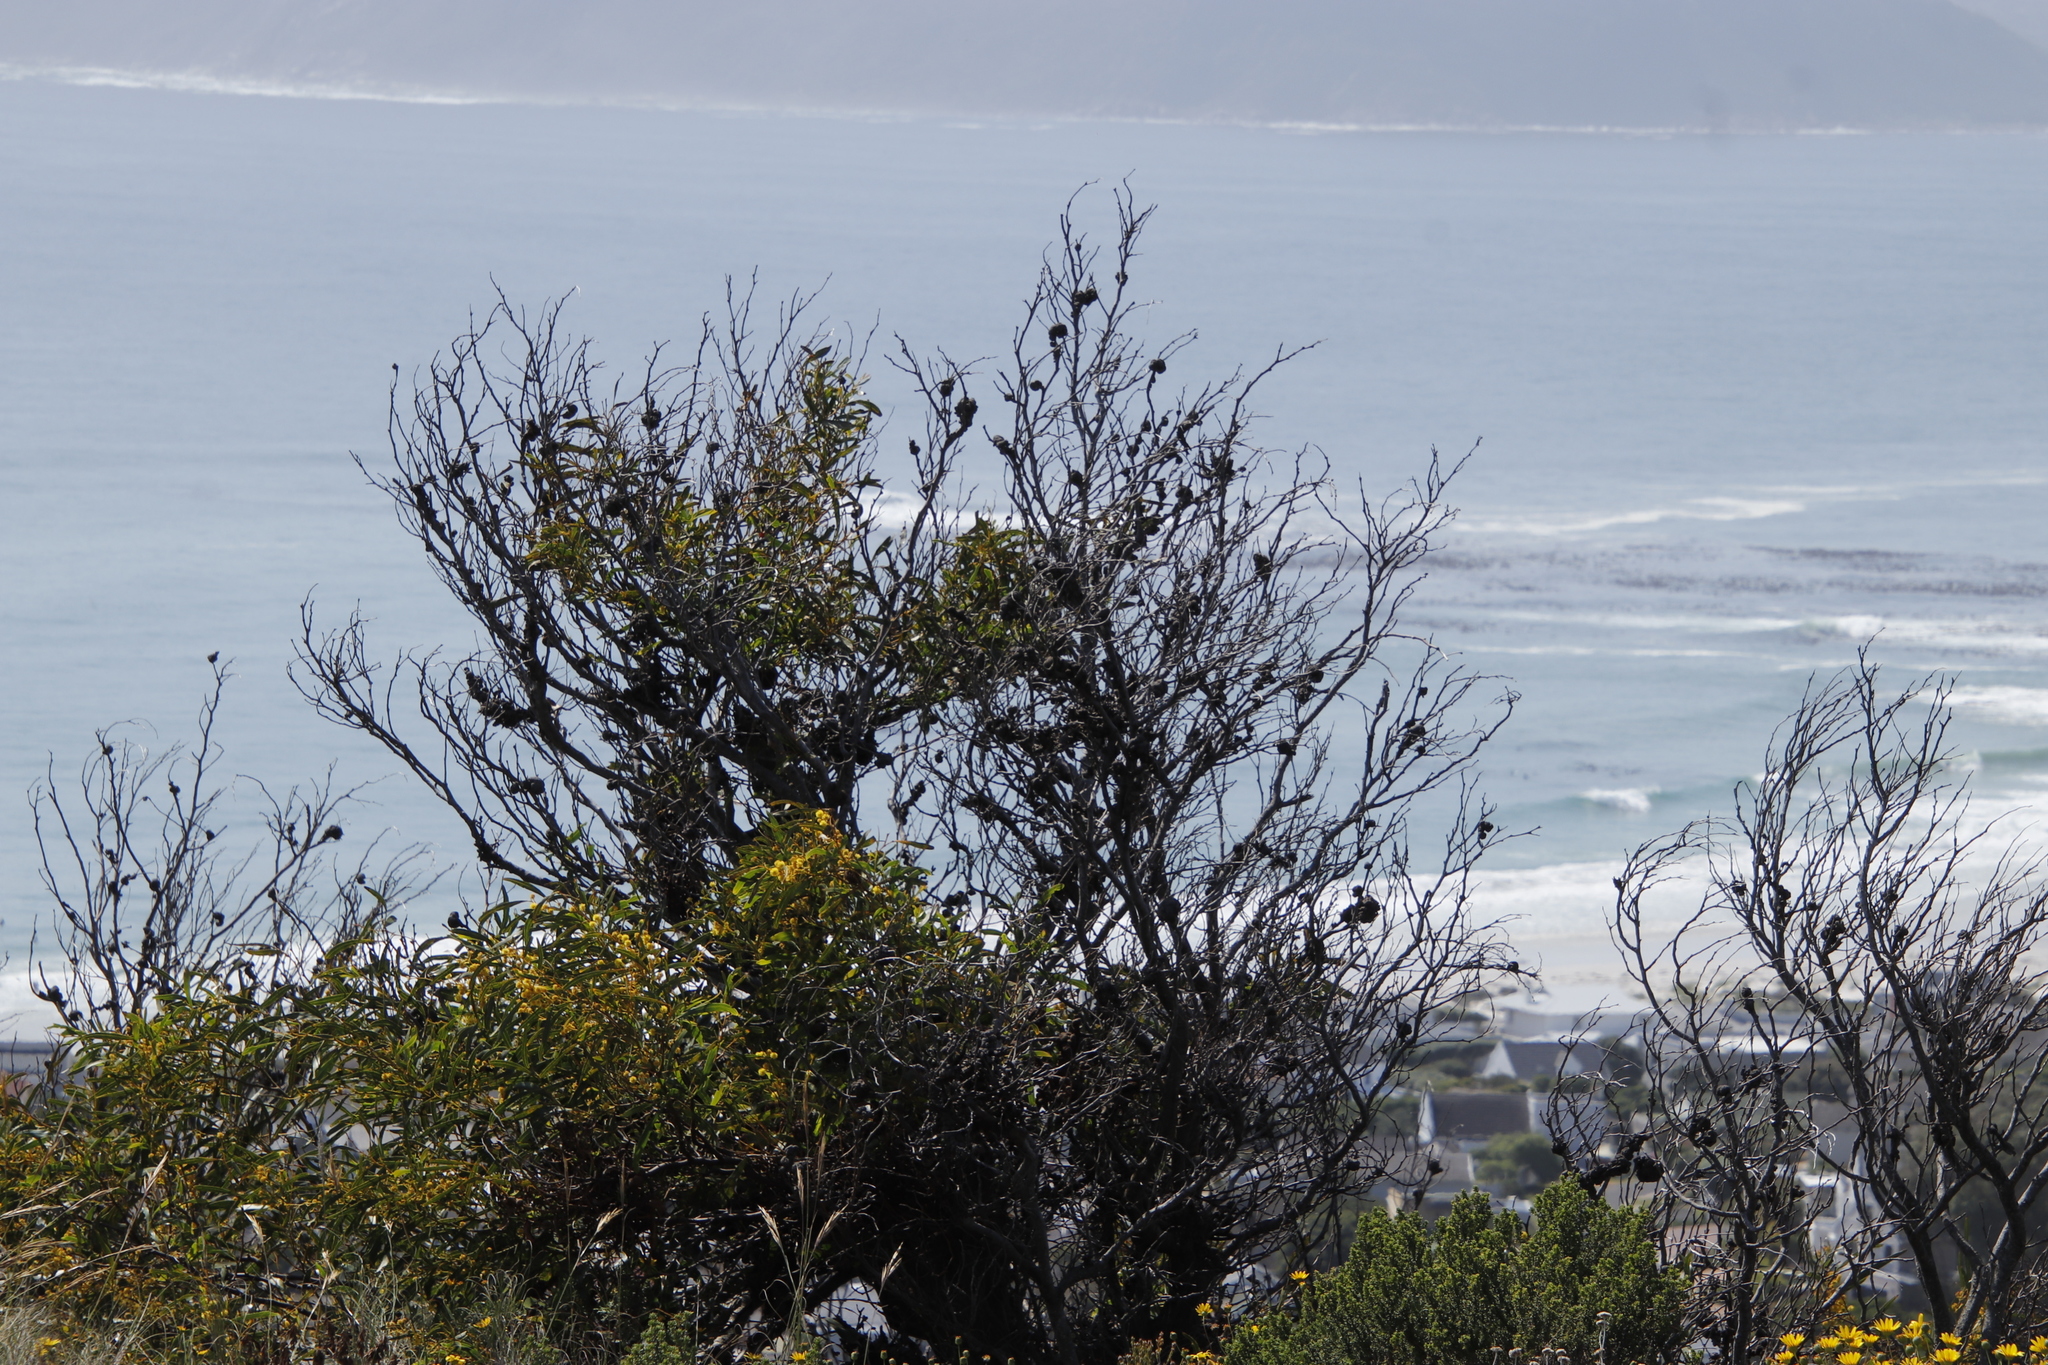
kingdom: Plantae
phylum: Tracheophyta
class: Magnoliopsida
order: Fabales
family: Fabaceae
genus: Acacia
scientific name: Acacia saligna
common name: Orange wattle
